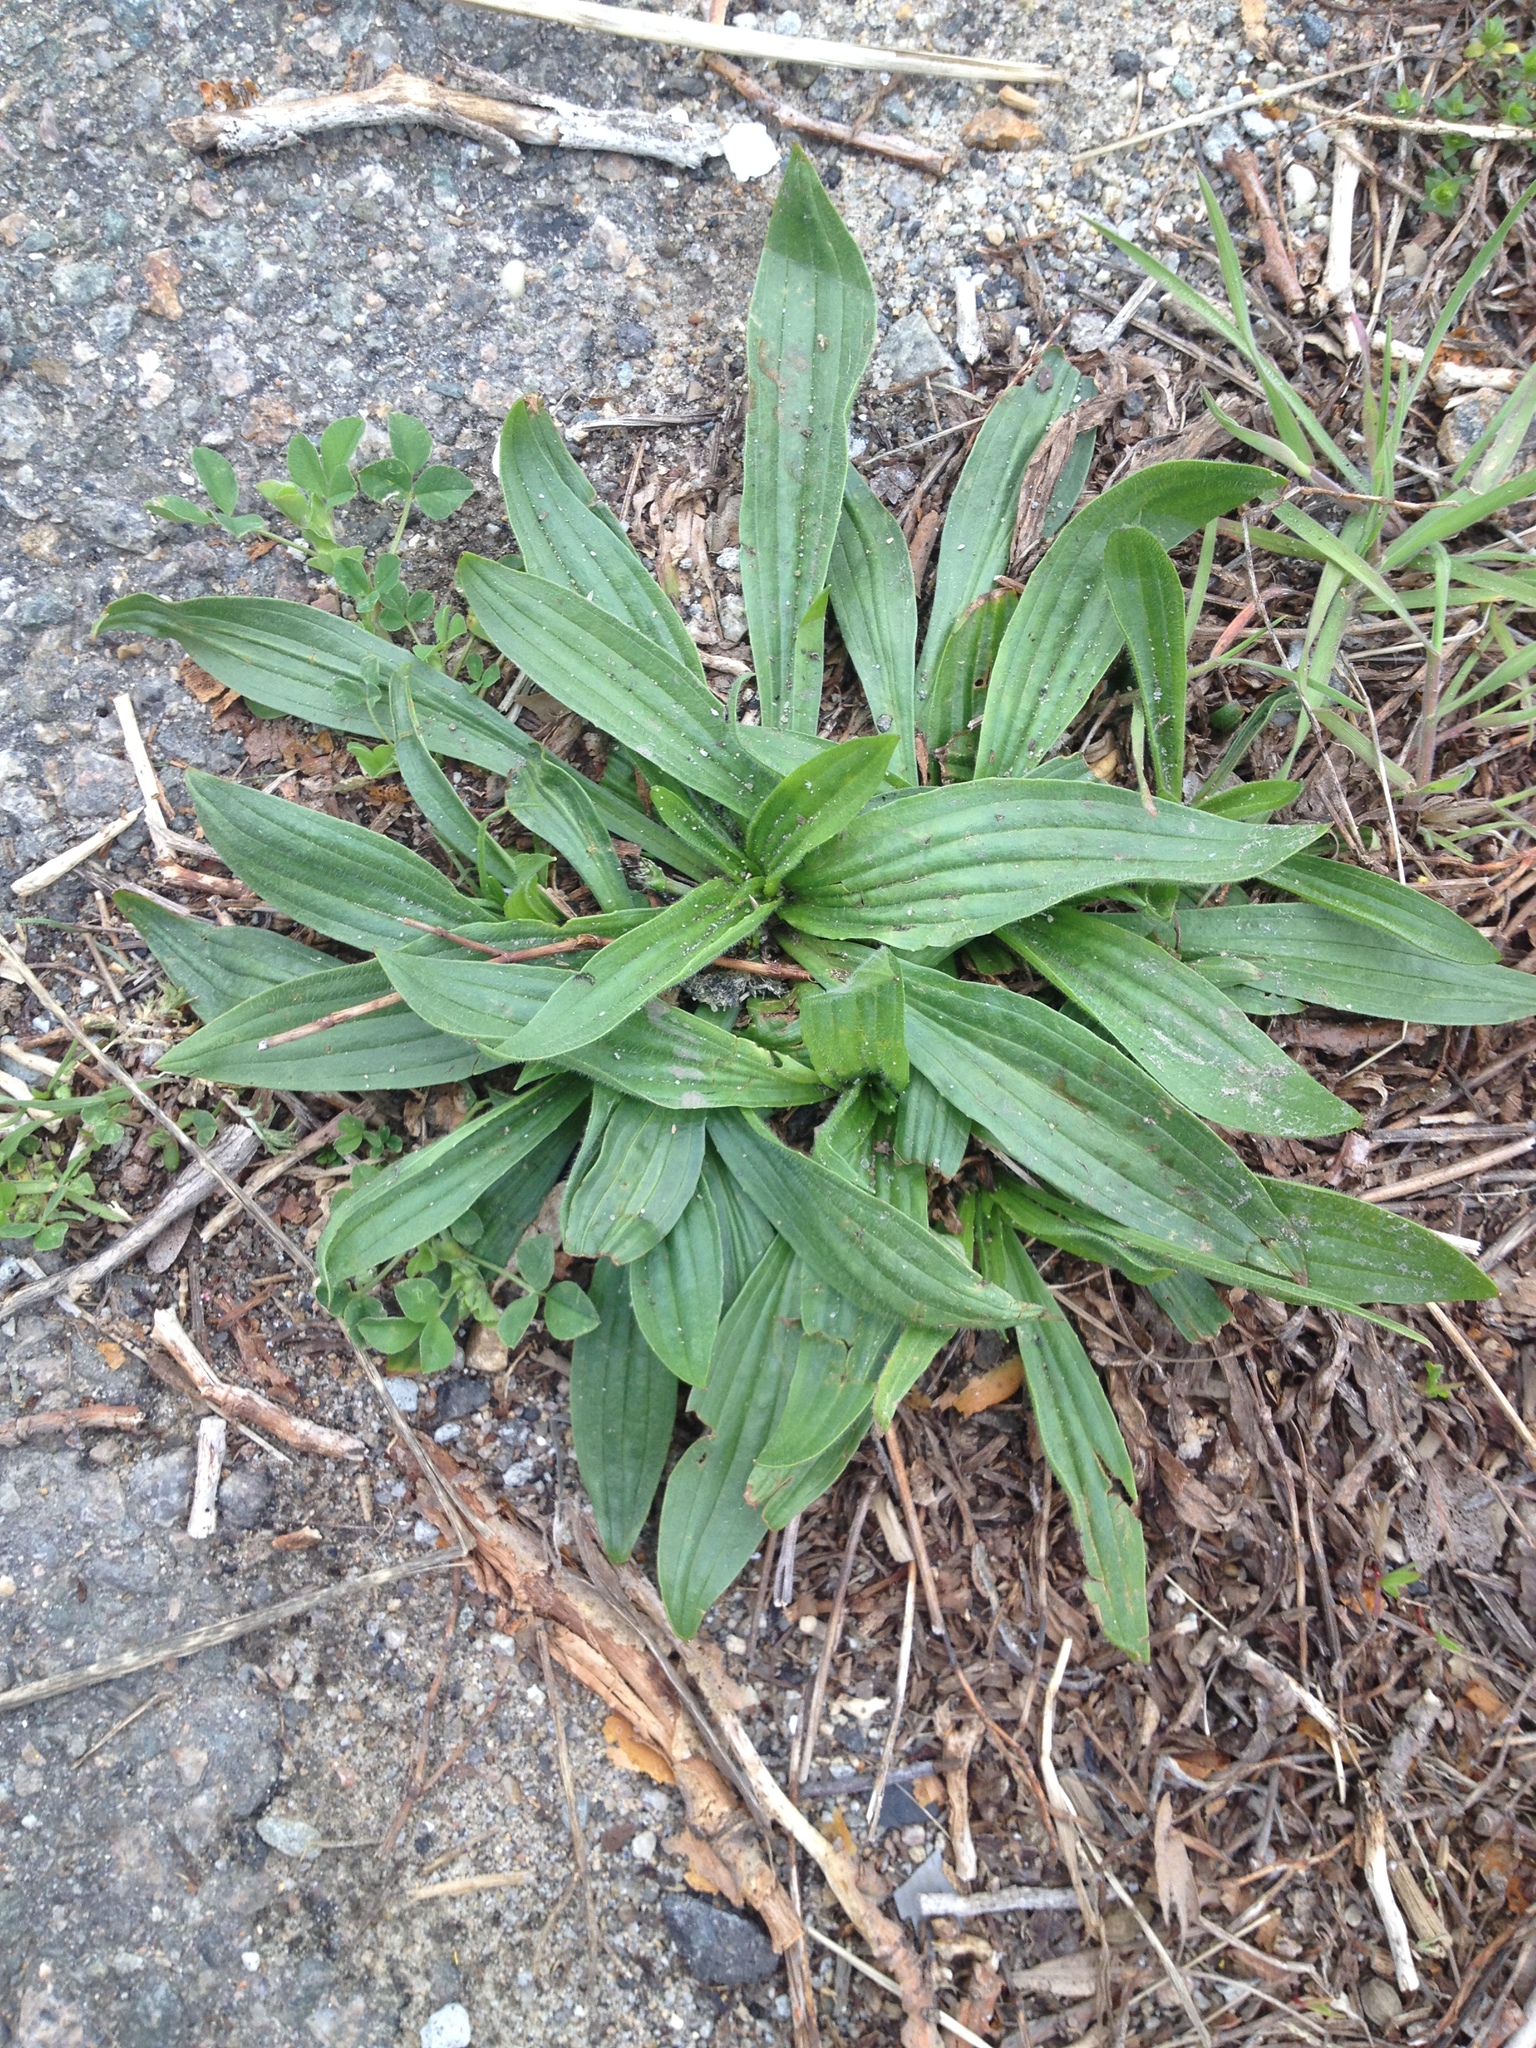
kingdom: Plantae
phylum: Tracheophyta
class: Magnoliopsida
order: Lamiales
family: Plantaginaceae
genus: Plantago
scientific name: Plantago lanceolata
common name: Ribwort plantain
